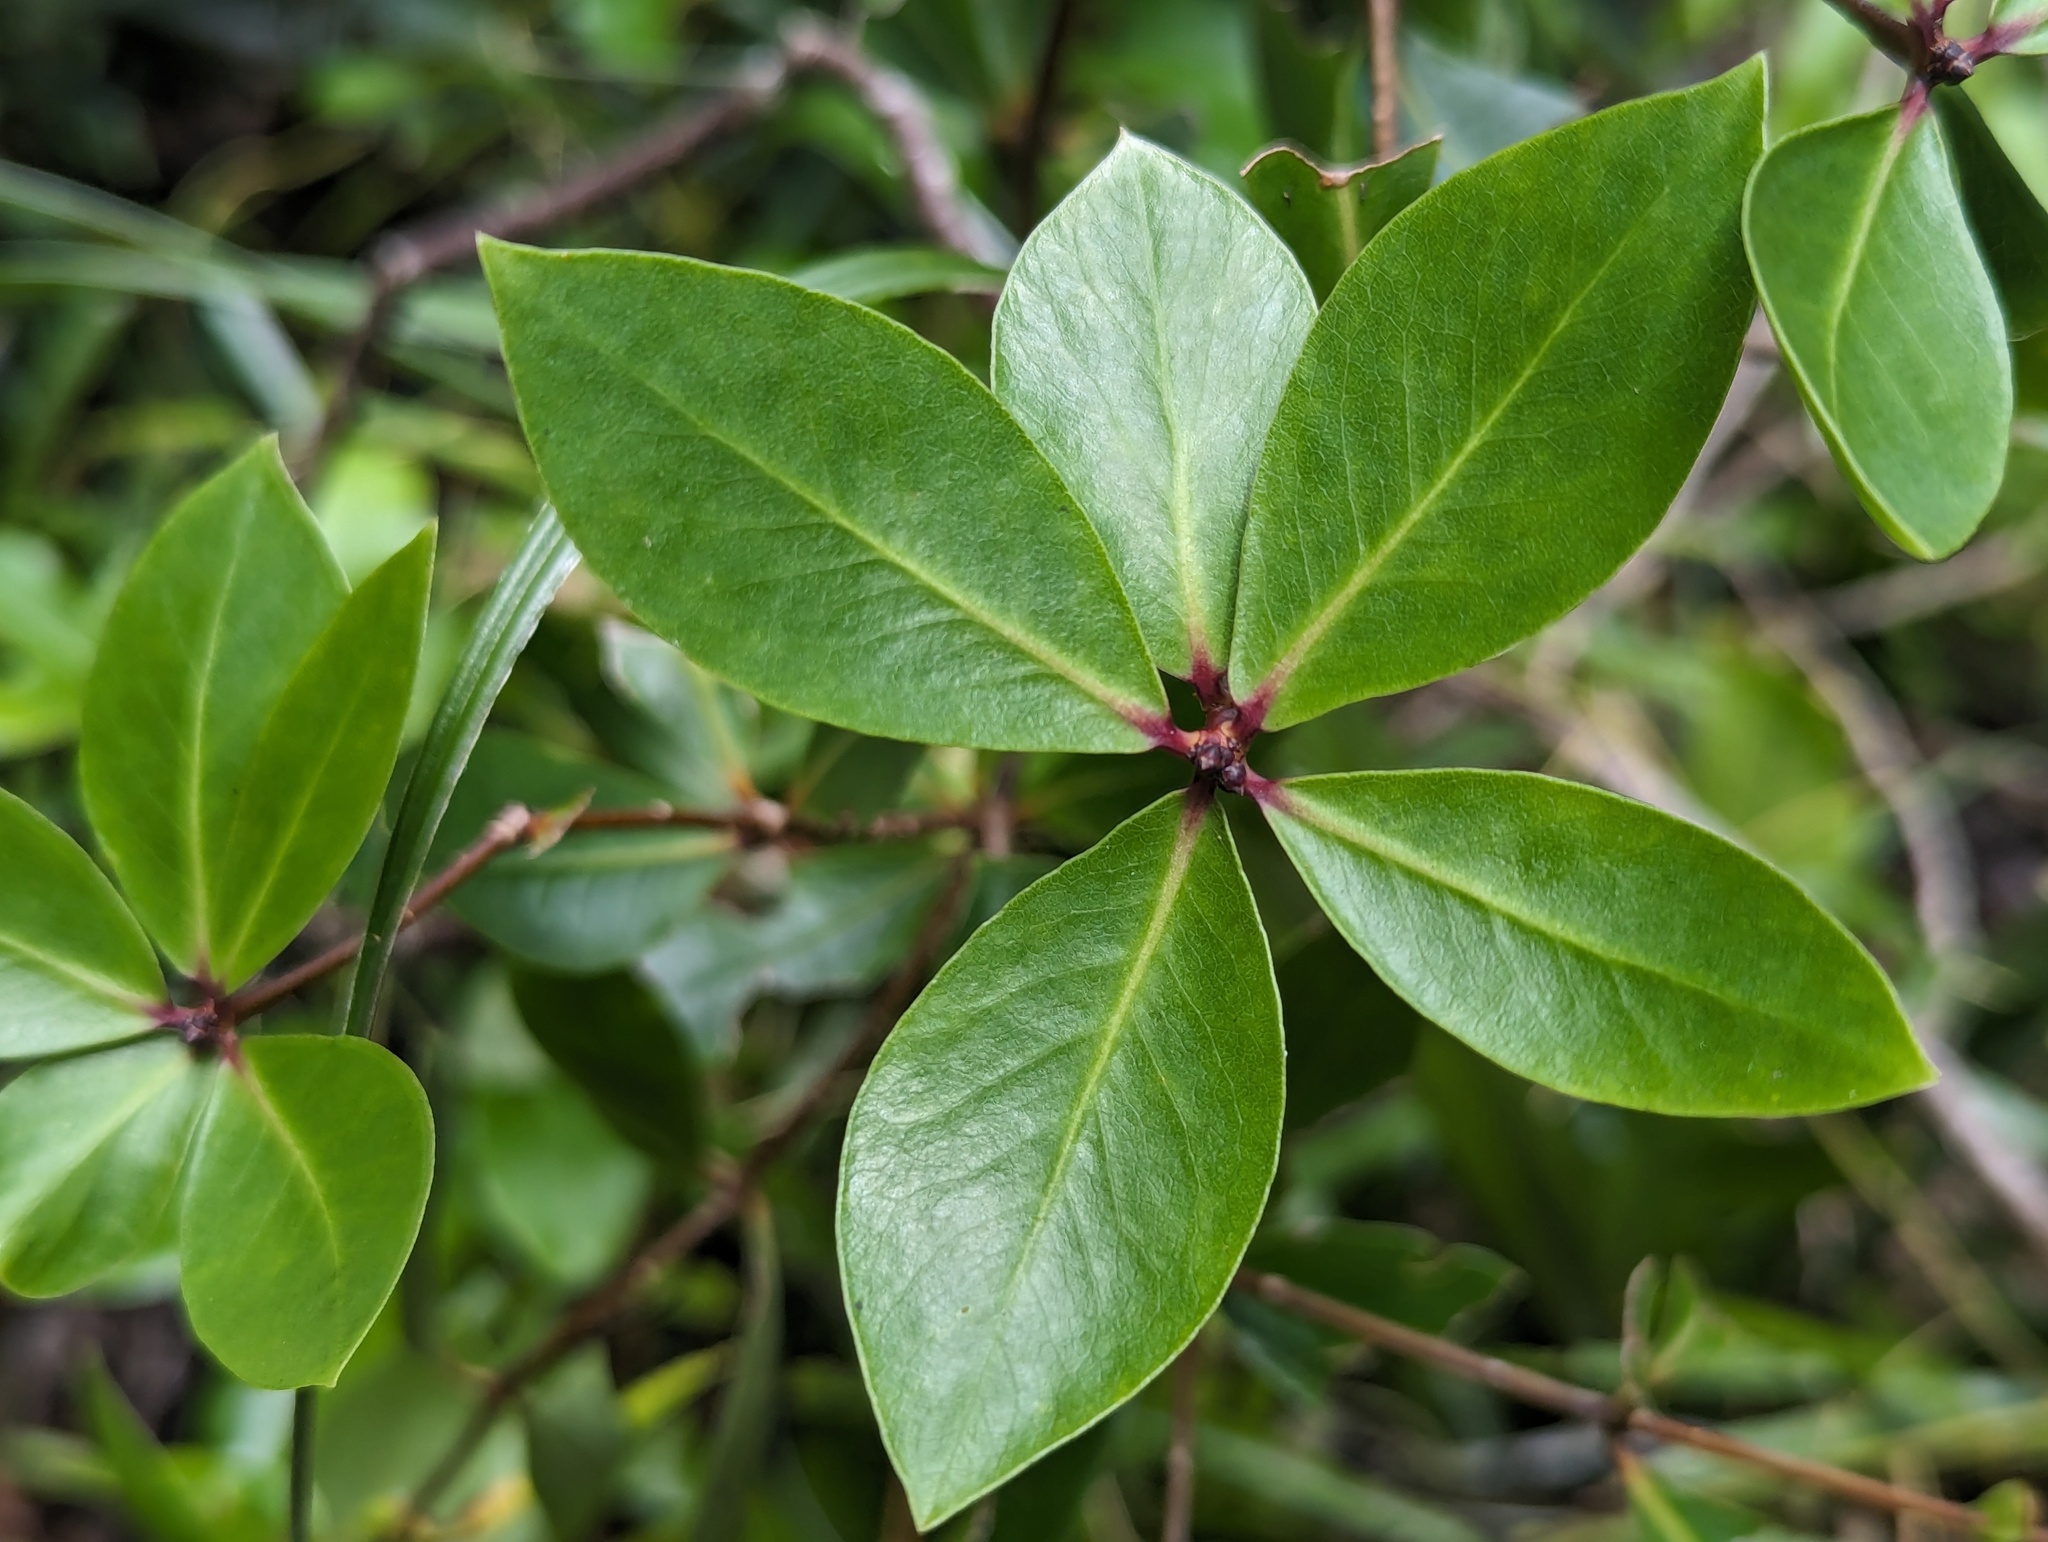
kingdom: Plantae
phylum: Tracheophyta
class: Magnoliopsida
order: Apiales
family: Pittosporaceae
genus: Pittosporum
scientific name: Pittosporum cornifolium
